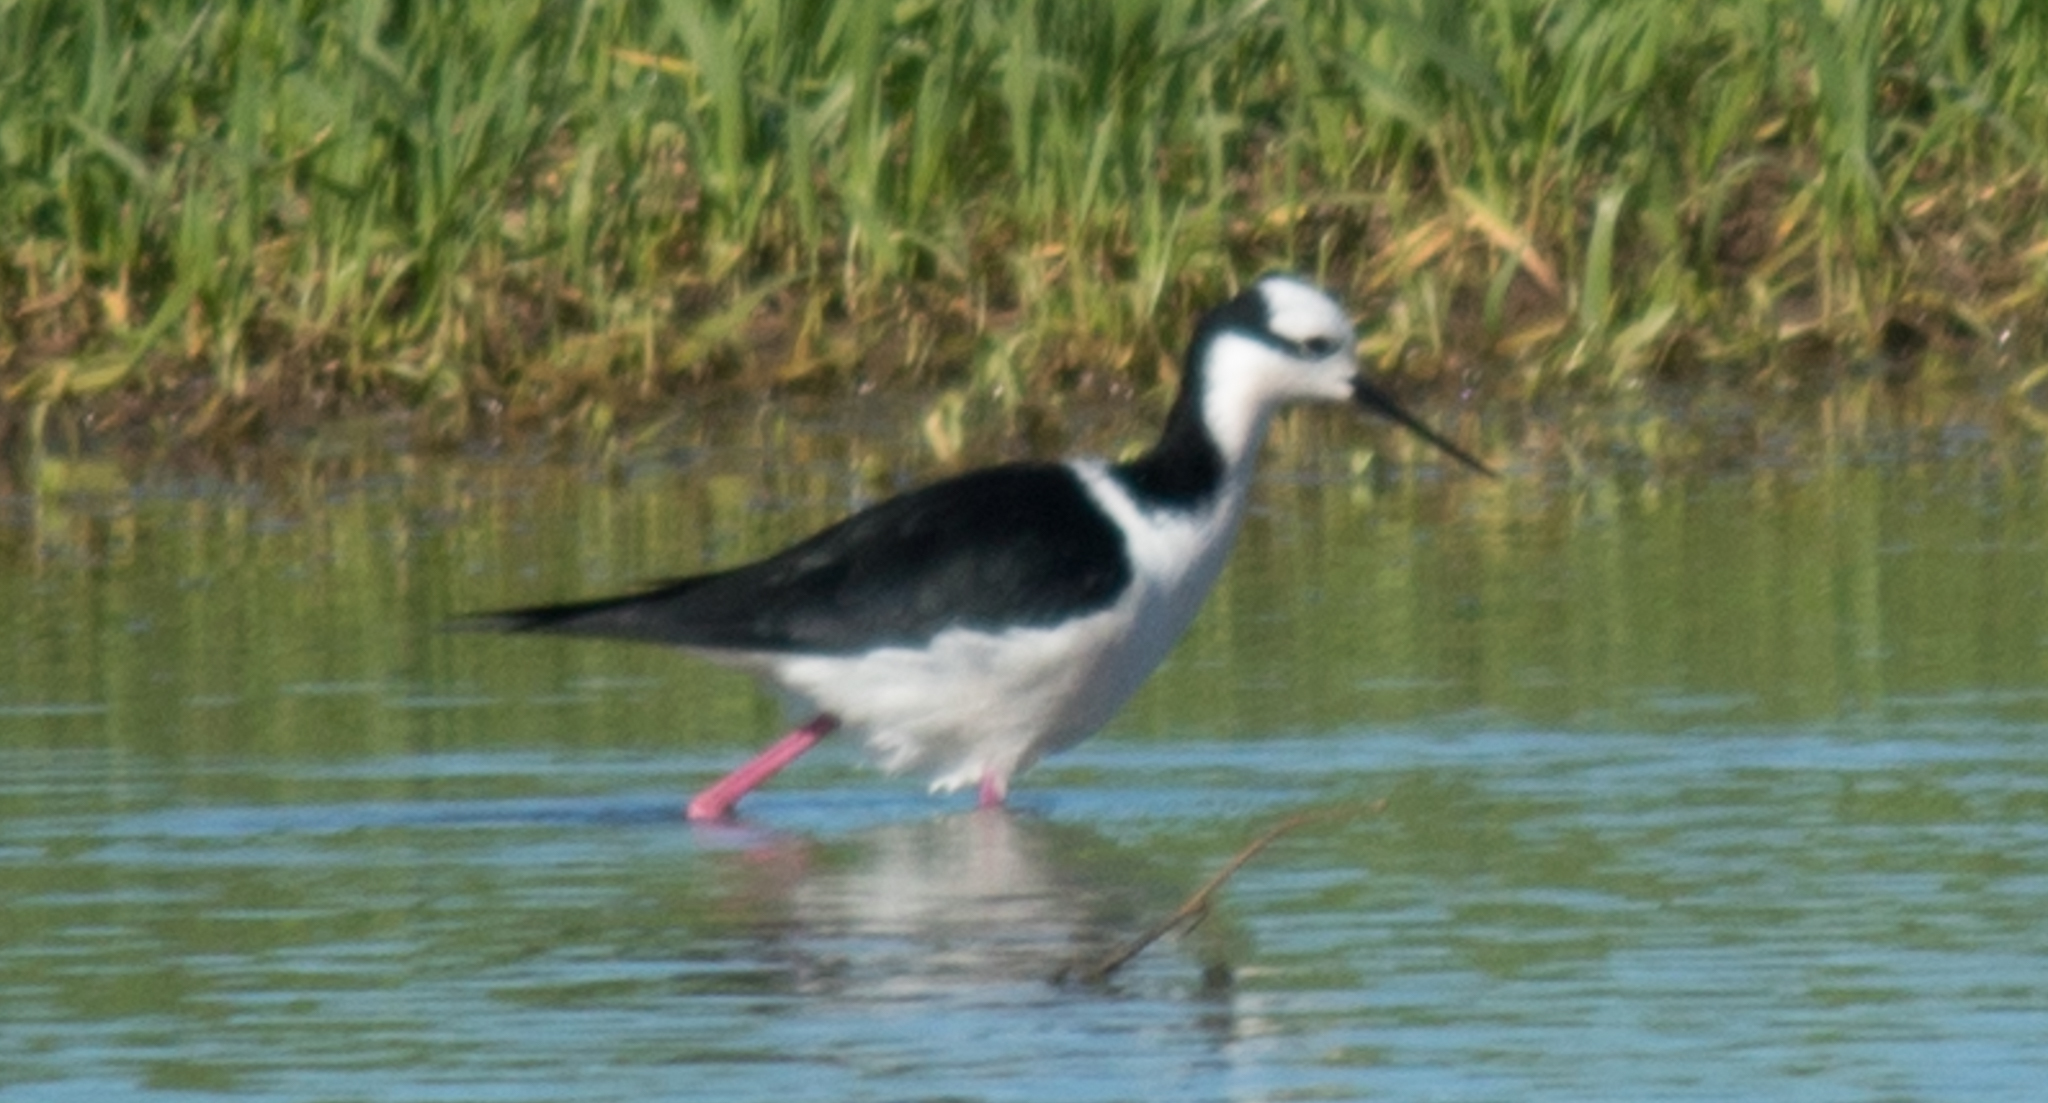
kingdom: Animalia
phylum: Chordata
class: Aves
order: Charadriiformes
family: Recurvirostridae
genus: Himantopus
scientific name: Himantopus mexicanus
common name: Black-necked stilt
